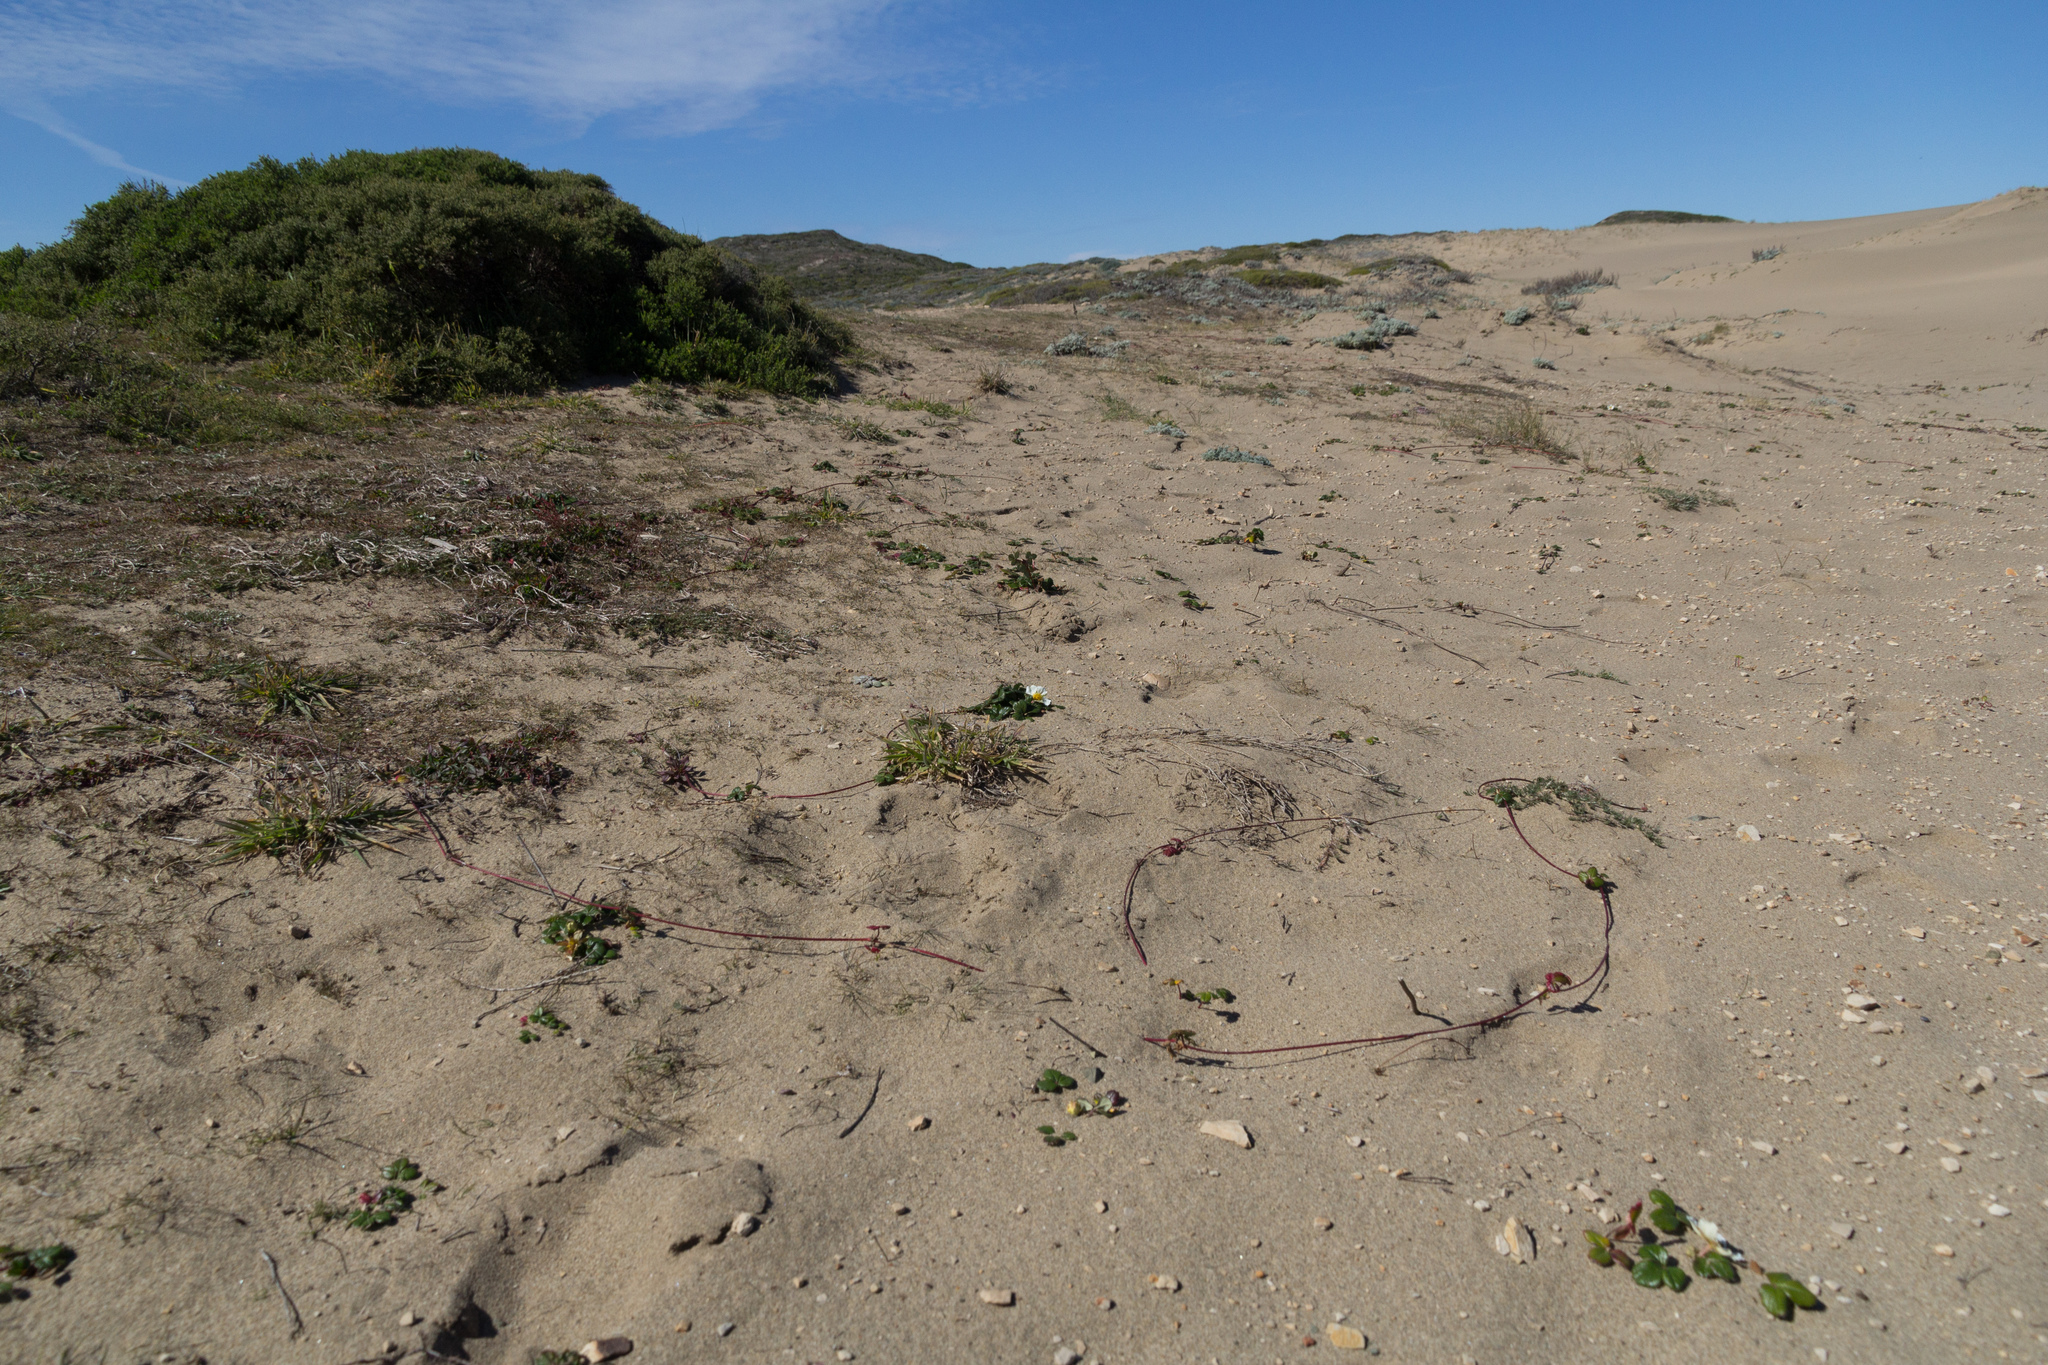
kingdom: Plantae
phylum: Tracheophyta
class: Magnoliopsida
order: Rosales
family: Rosaceae
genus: Fragaria
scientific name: Fragaria chiloensis
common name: Beach strawberry
